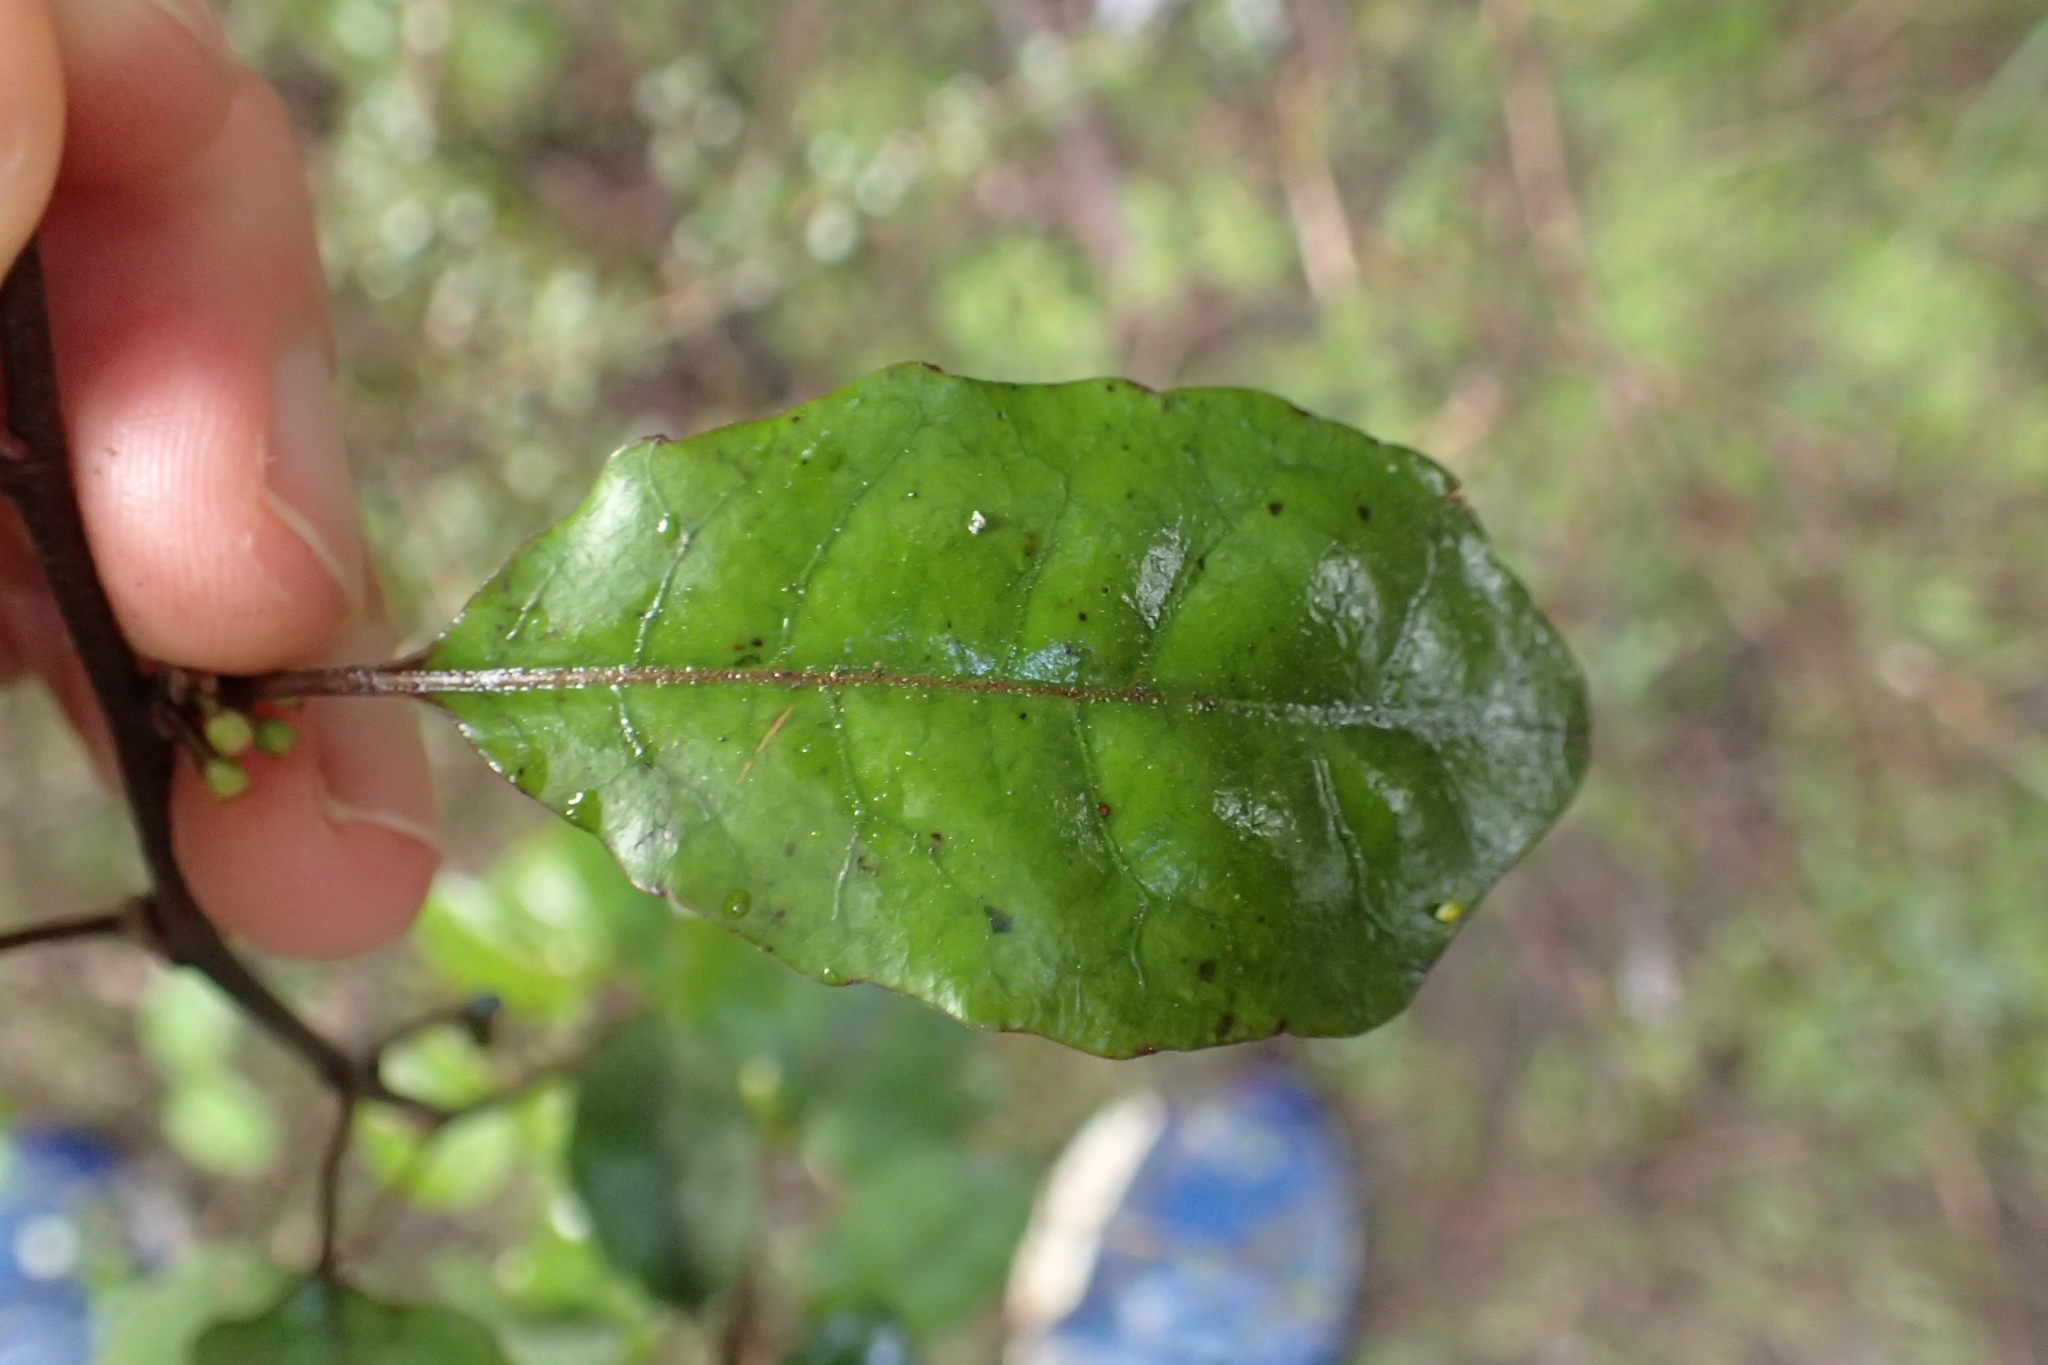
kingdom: Plantae
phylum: Tracheophyta
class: Magnoliopsida
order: Asterales
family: Alseuosmiaceae
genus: Alseuosmia
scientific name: Alseuosmia banksii
